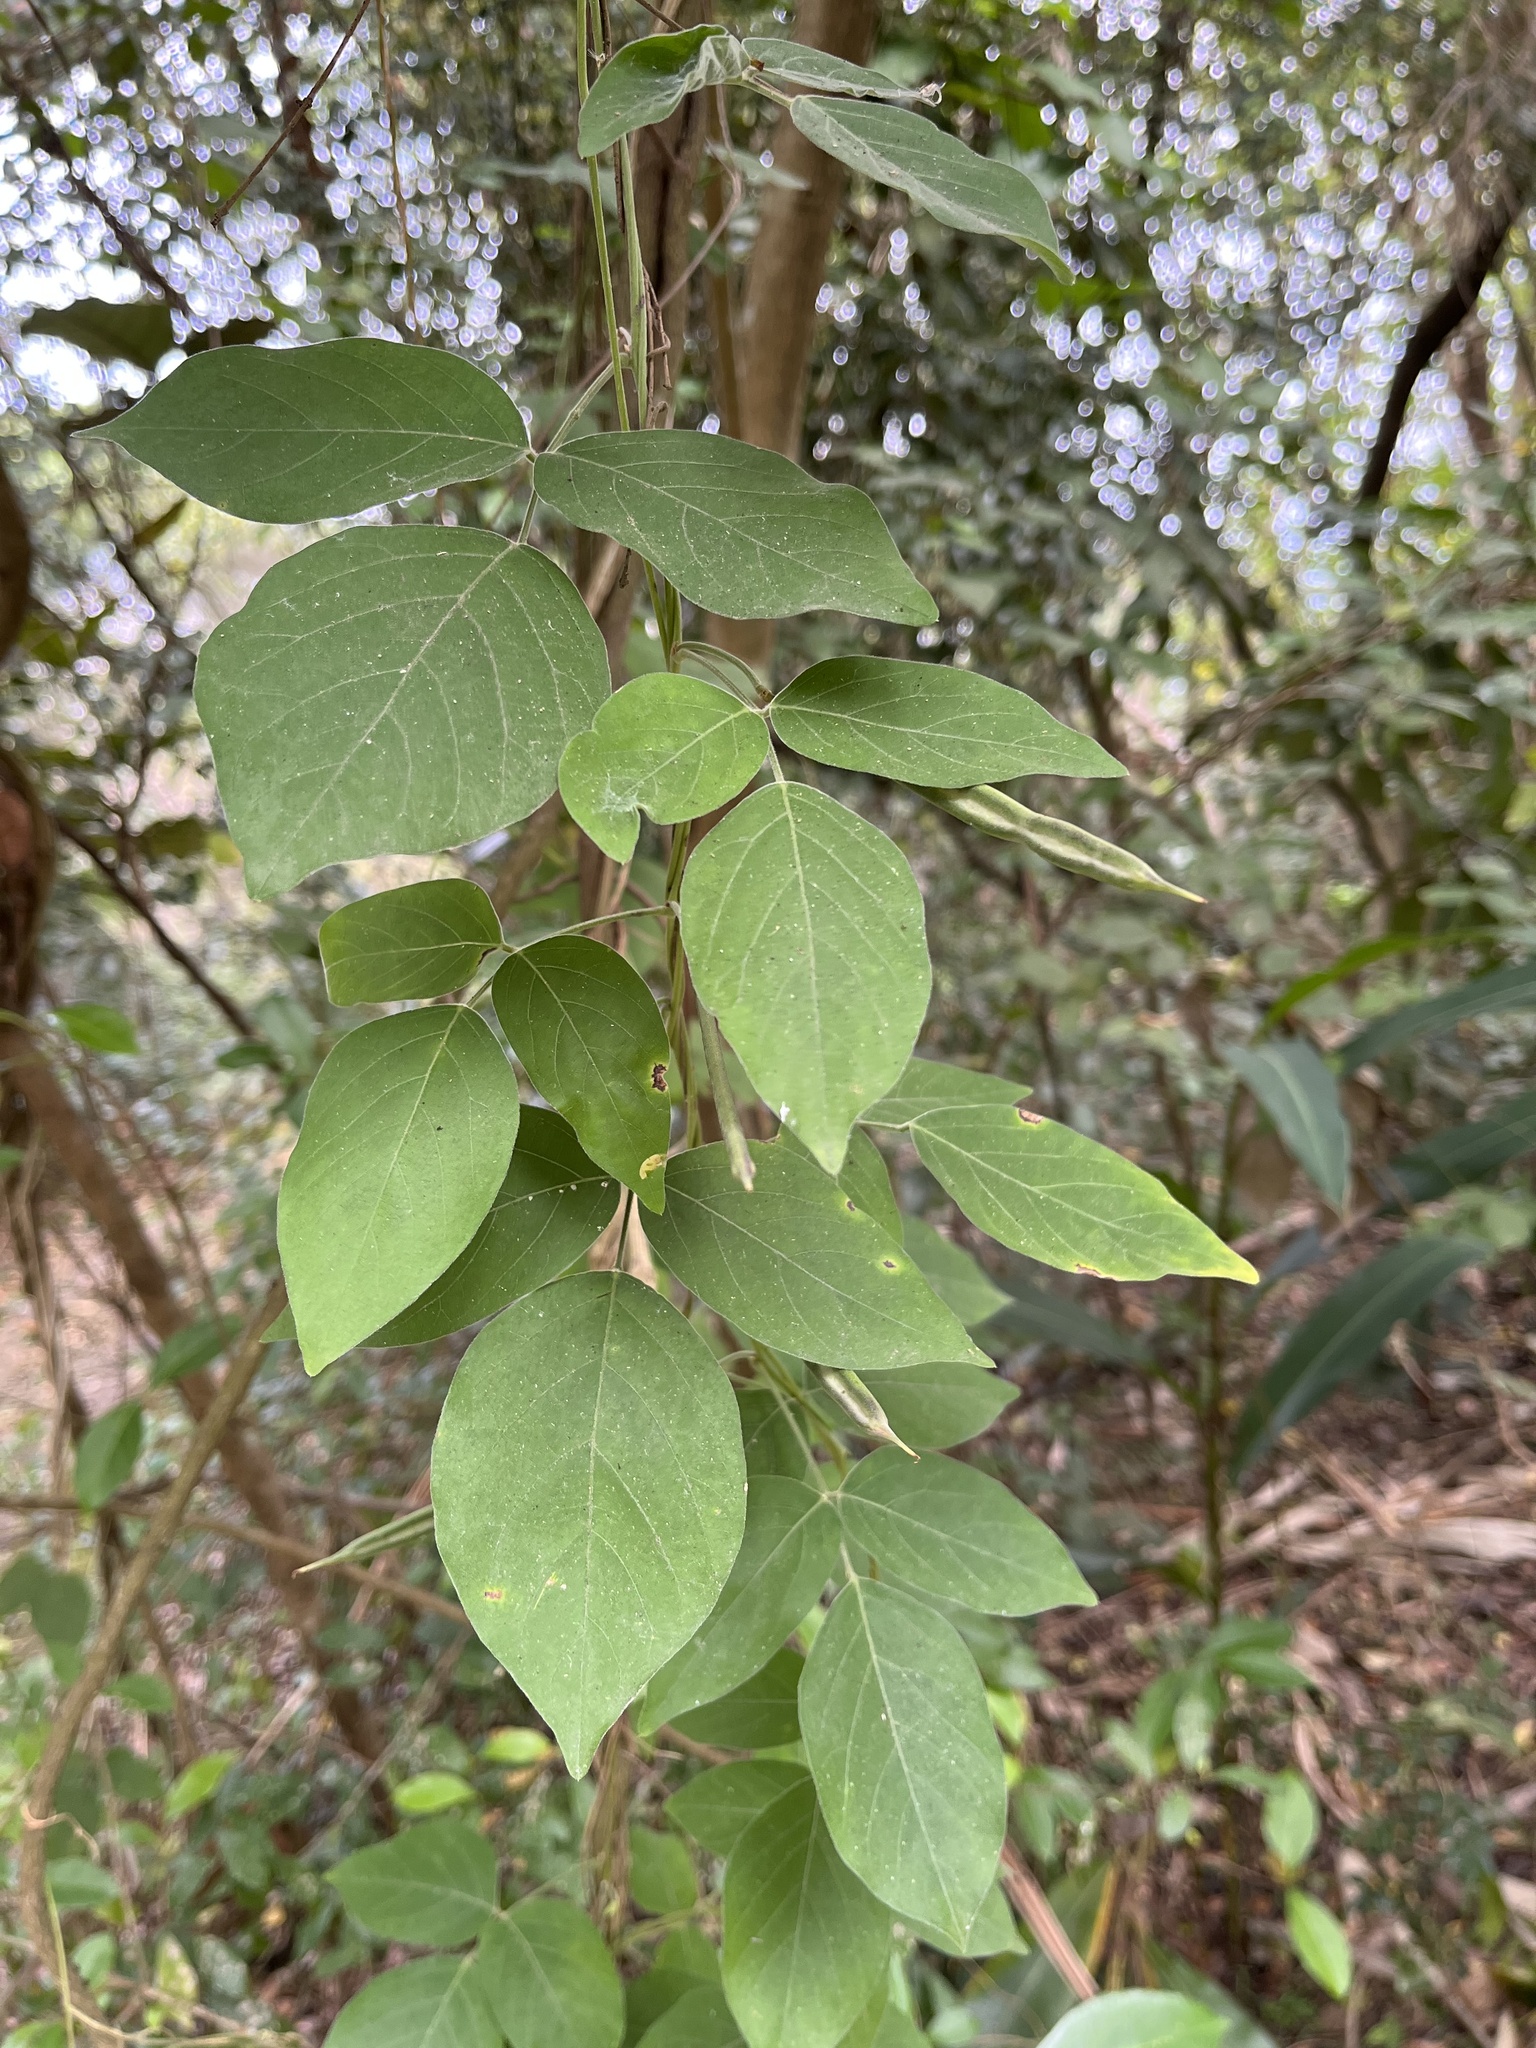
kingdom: Plantae
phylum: Tracheophyta
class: Magnoliopsida
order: Fabales
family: Fabaceae
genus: Centrosema
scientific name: Centrosema pubescens
